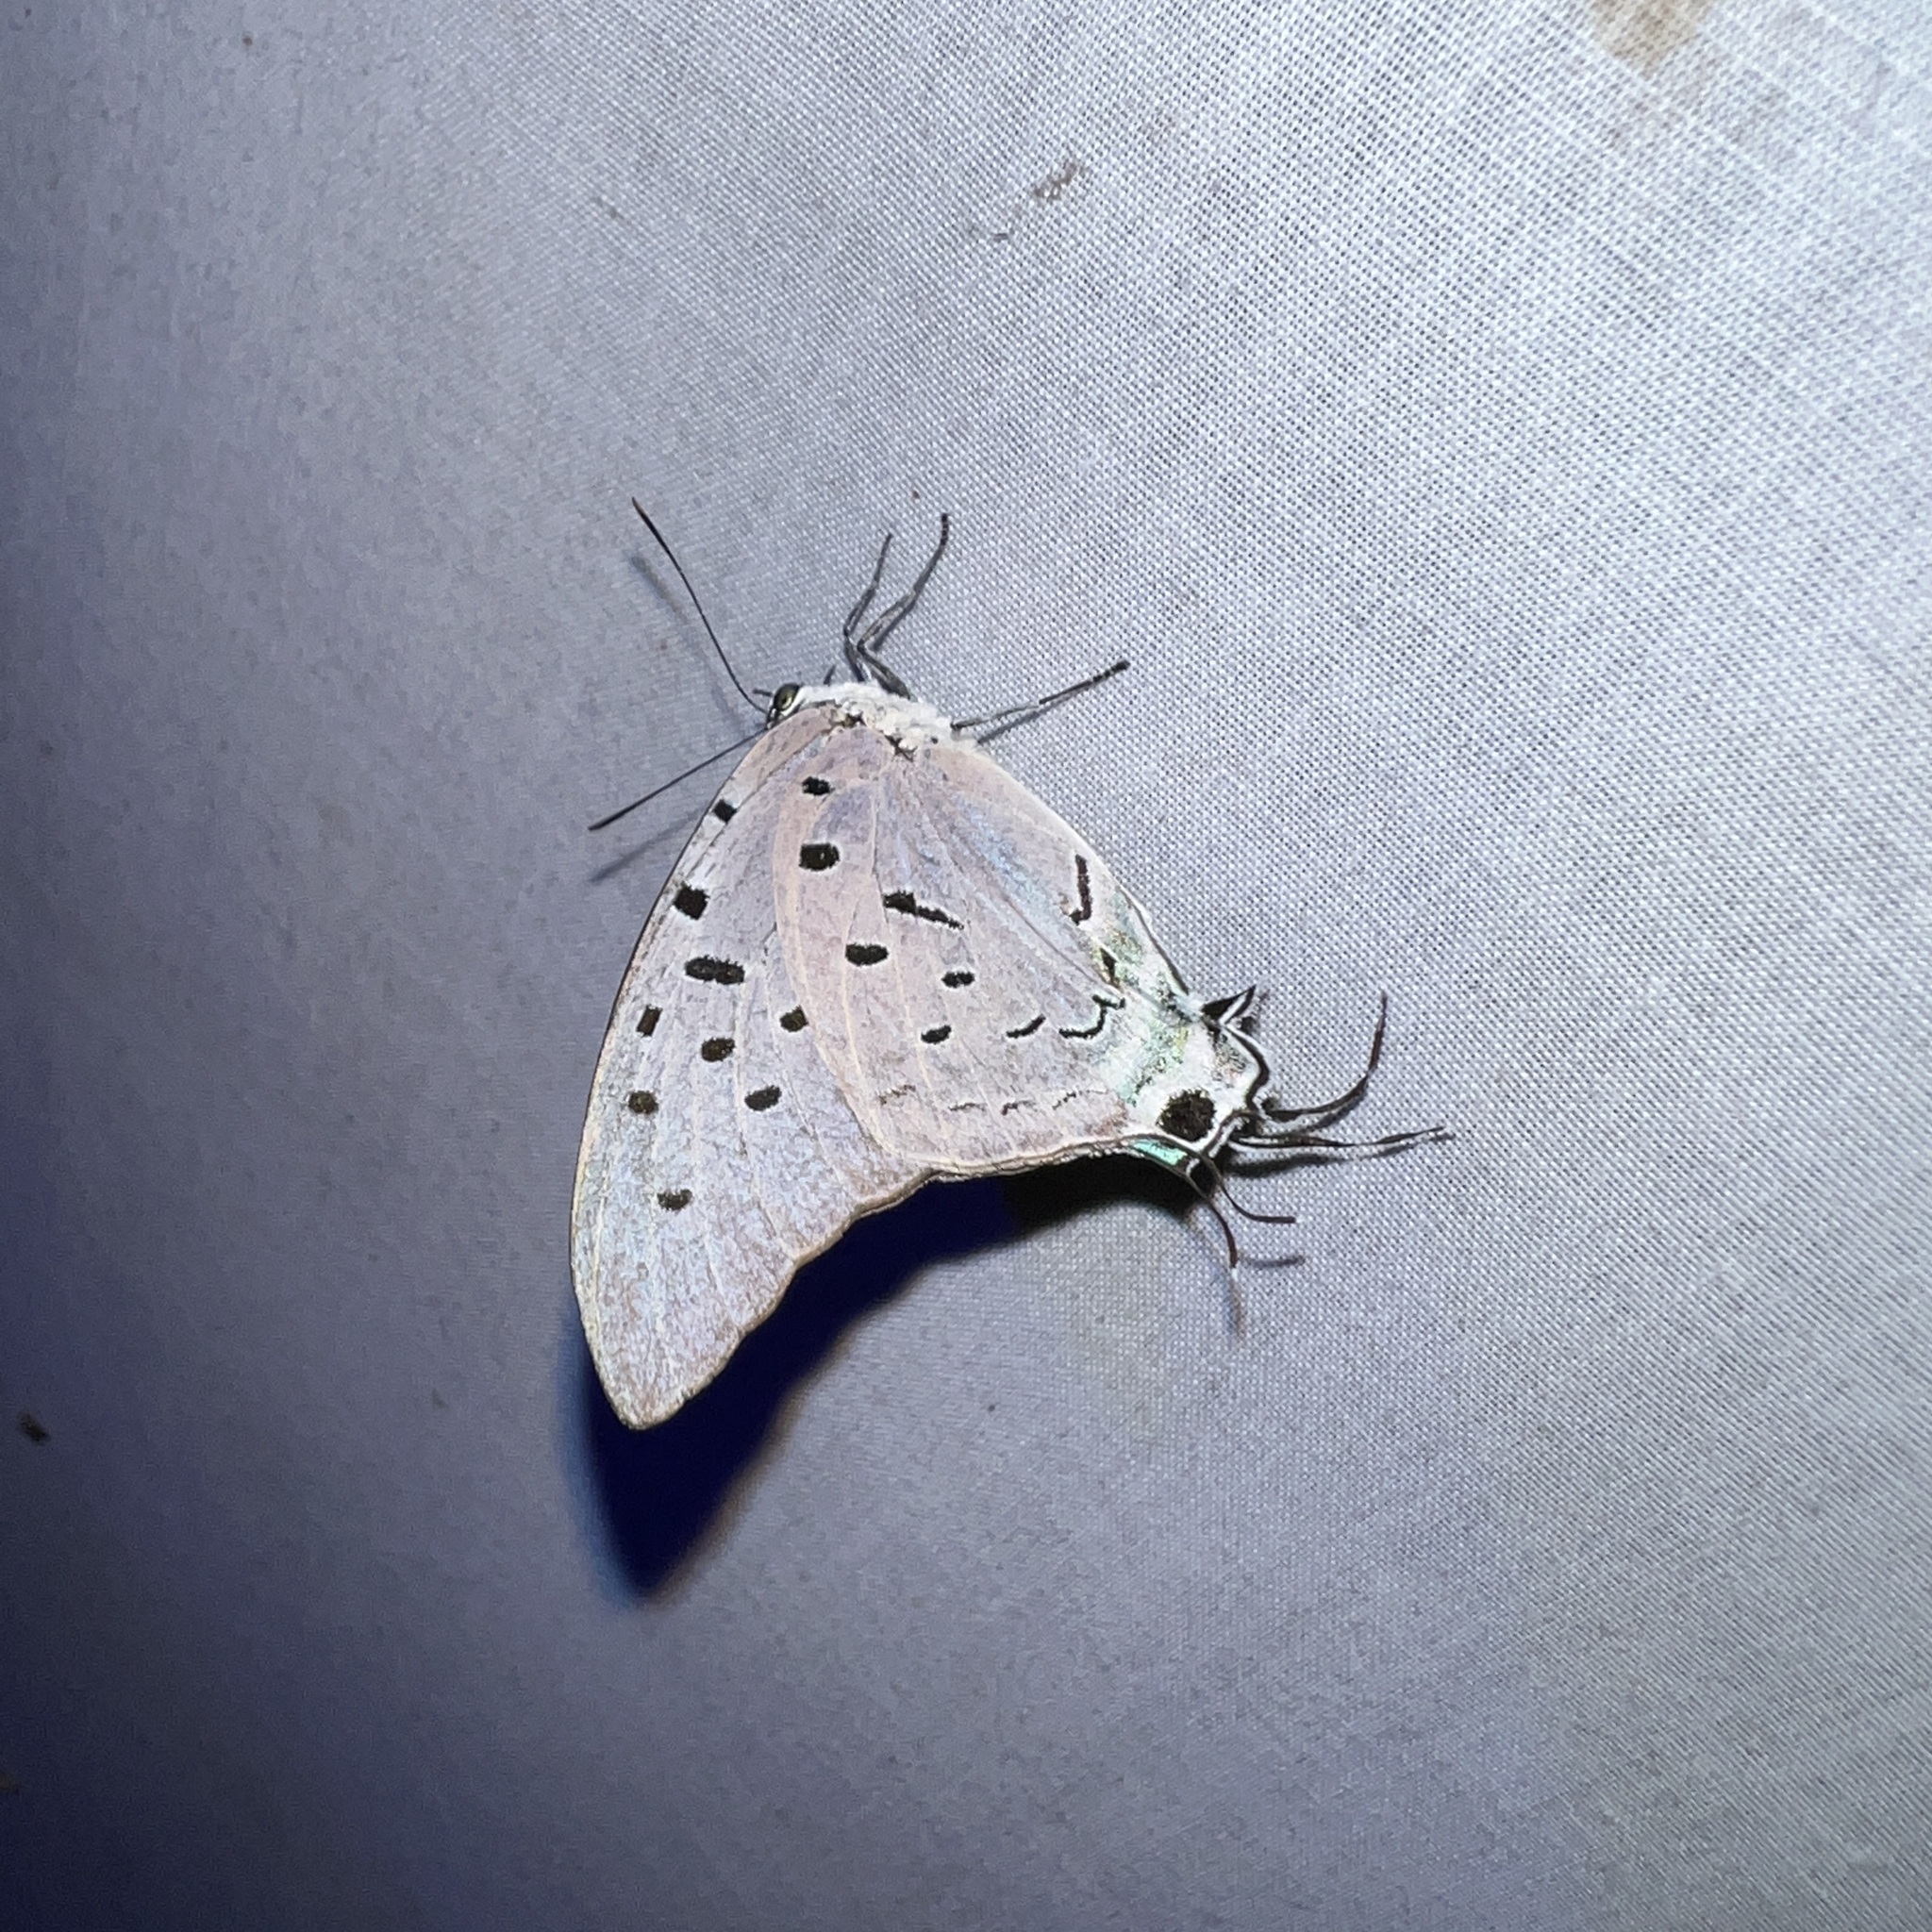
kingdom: Animalia
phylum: Arthropoda
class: Insecta
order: Lepidoptera
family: Lycaenidae
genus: Pseudolycaena
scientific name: Pseudolycaena marsyas
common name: Marsyas hairstreak
